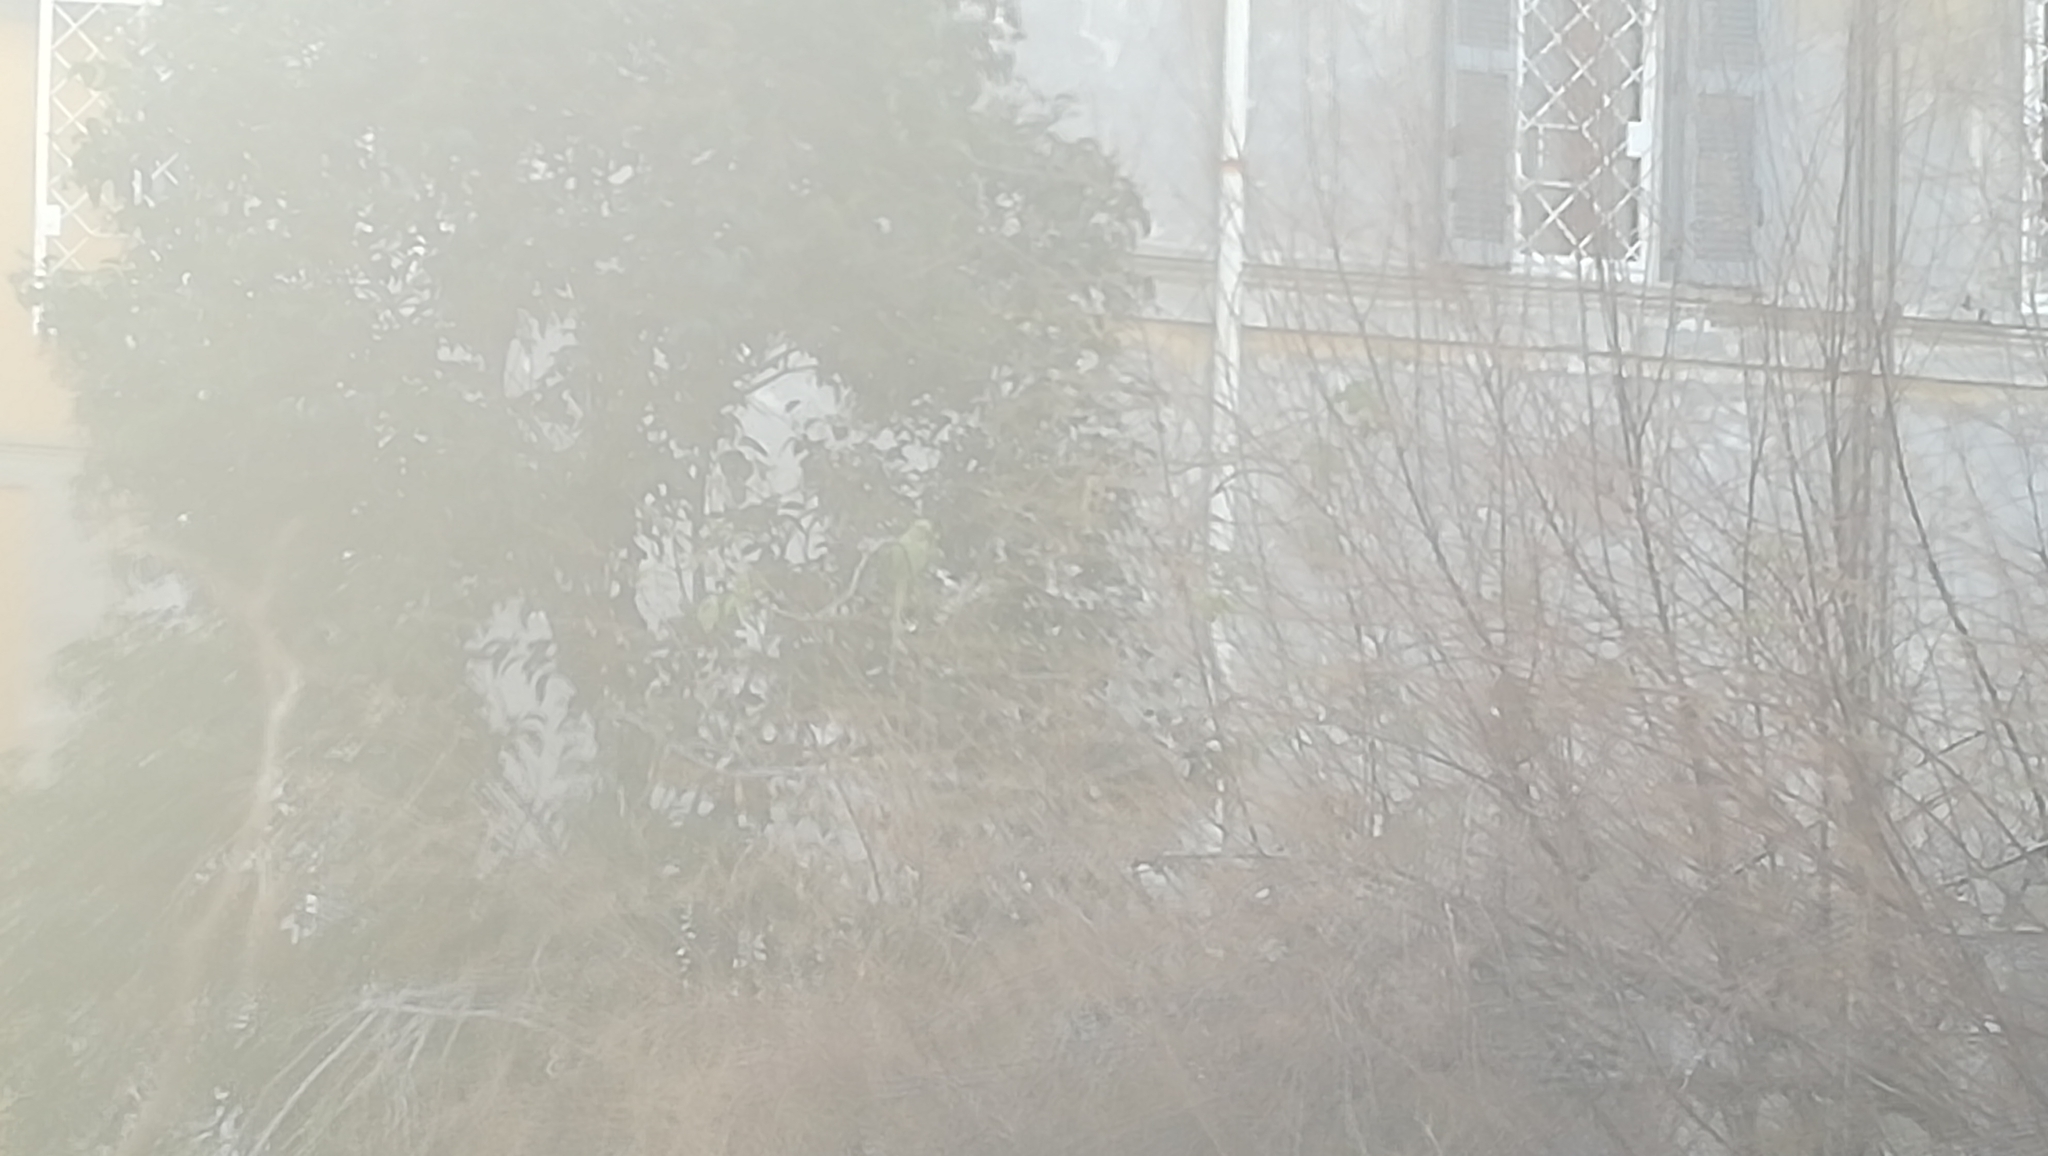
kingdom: Animalia
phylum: Chordata
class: Aves
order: Psittaciformes
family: Psittacidae
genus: Psittacula
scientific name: Psittacula krameri
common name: Rose-ringed parakeet
